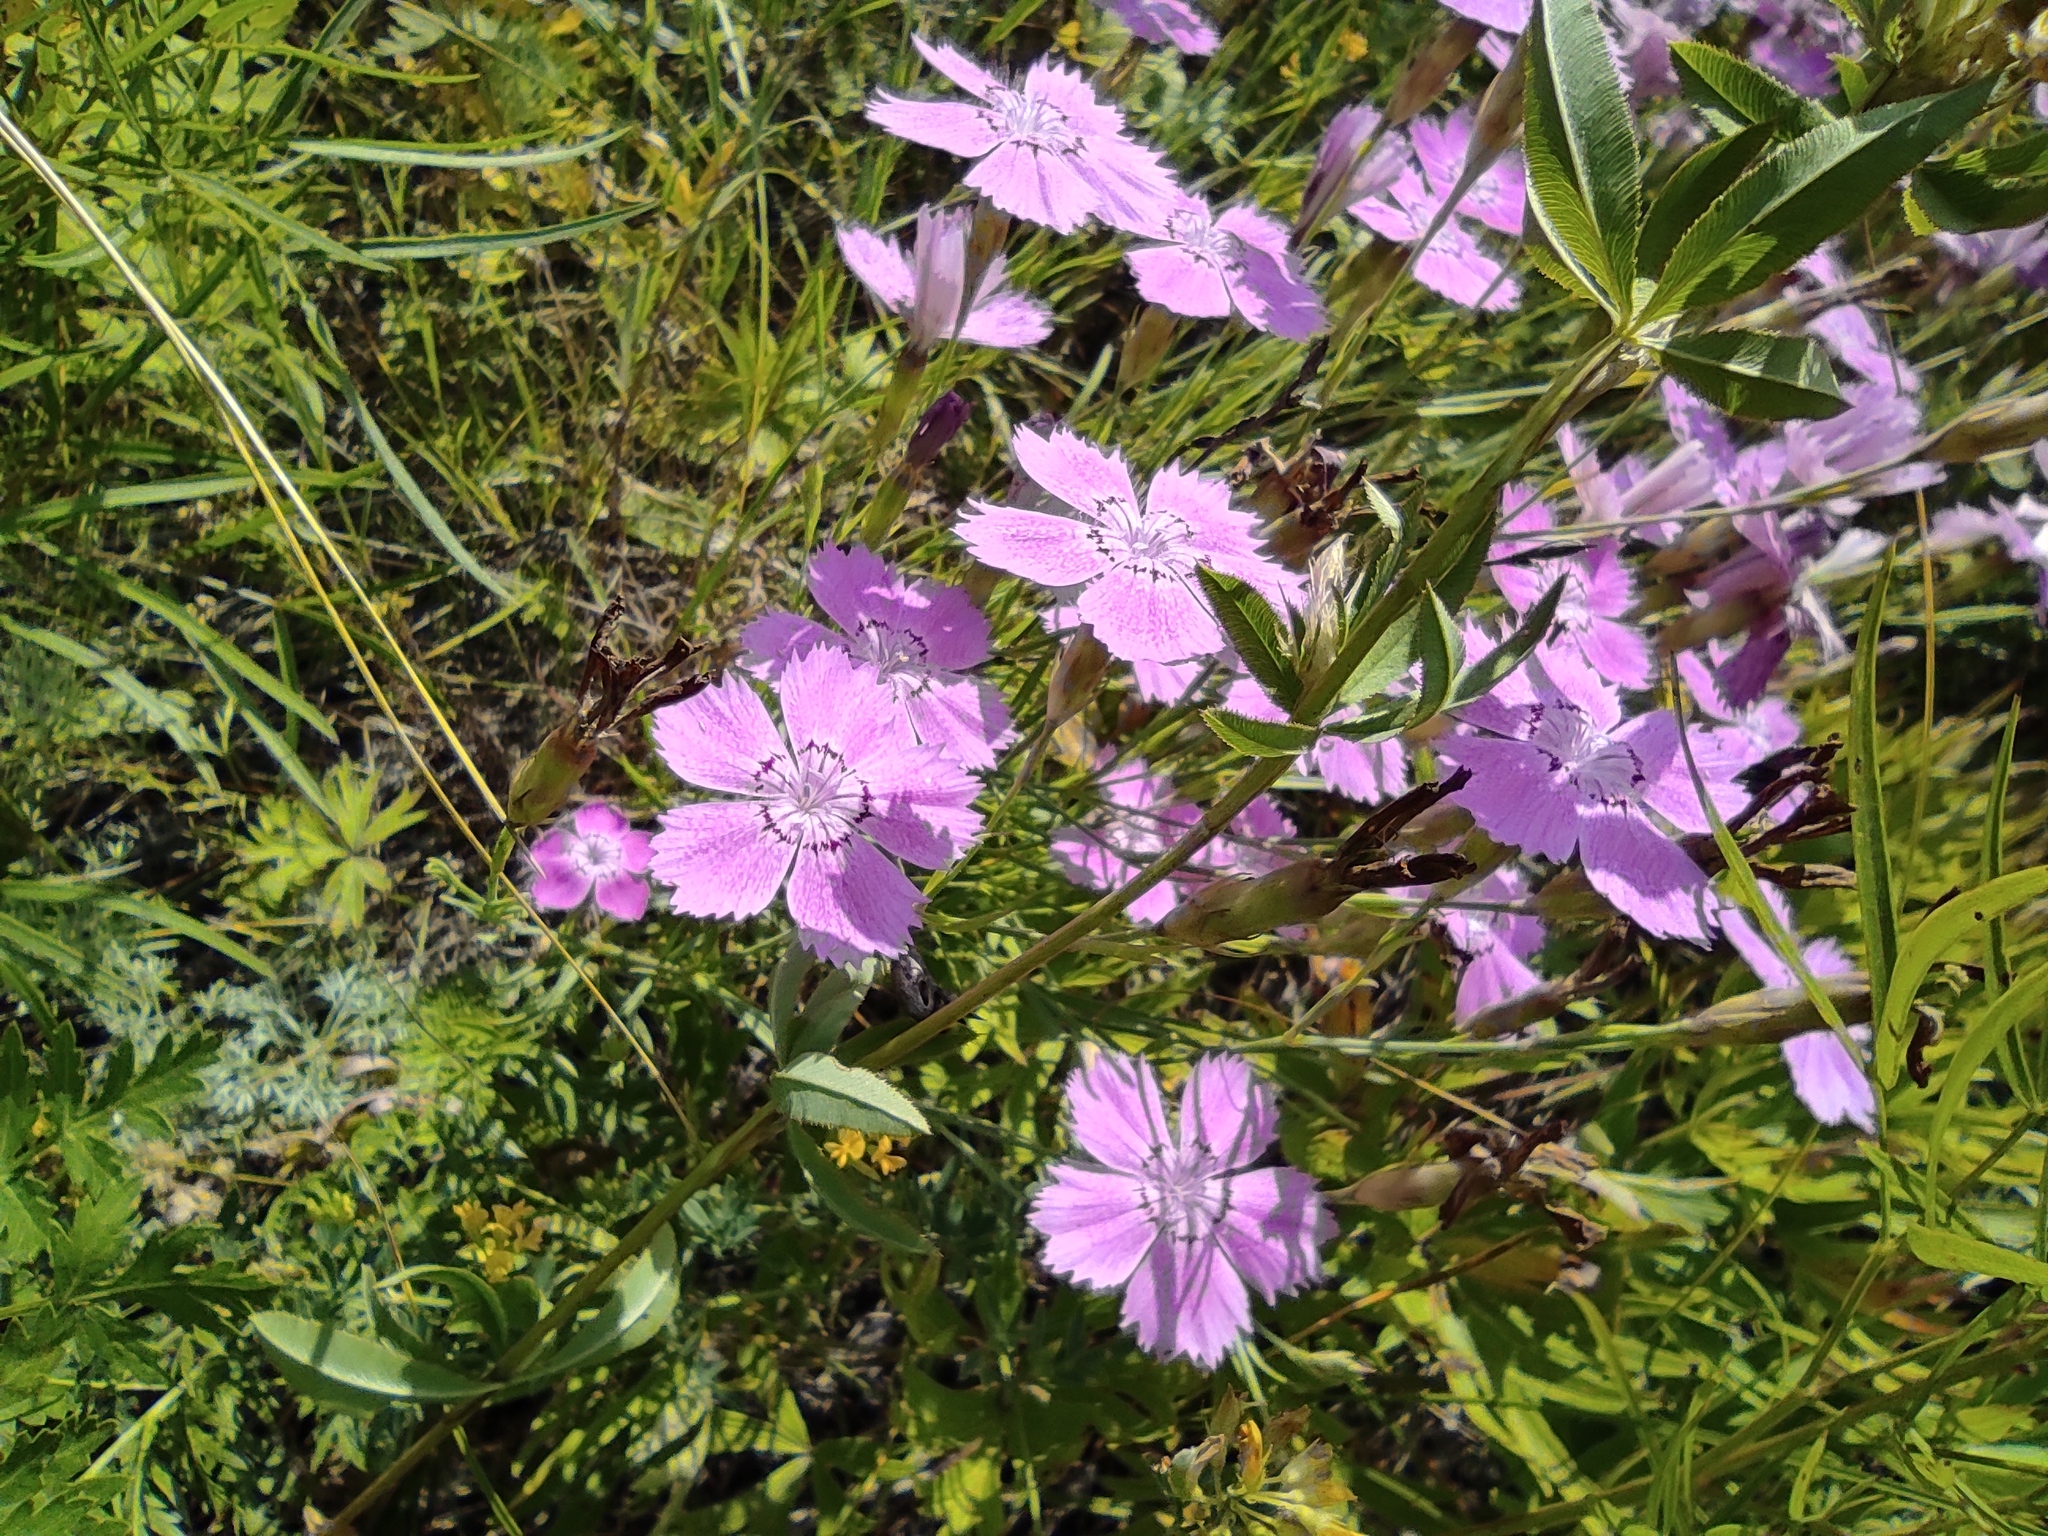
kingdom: Plantae
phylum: Tracheophyta
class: Magnoliopsida
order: Caryophyllales
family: Caryophyllaceae
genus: Dianthus
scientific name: Dianthus chinensis
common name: Rainbow pink
